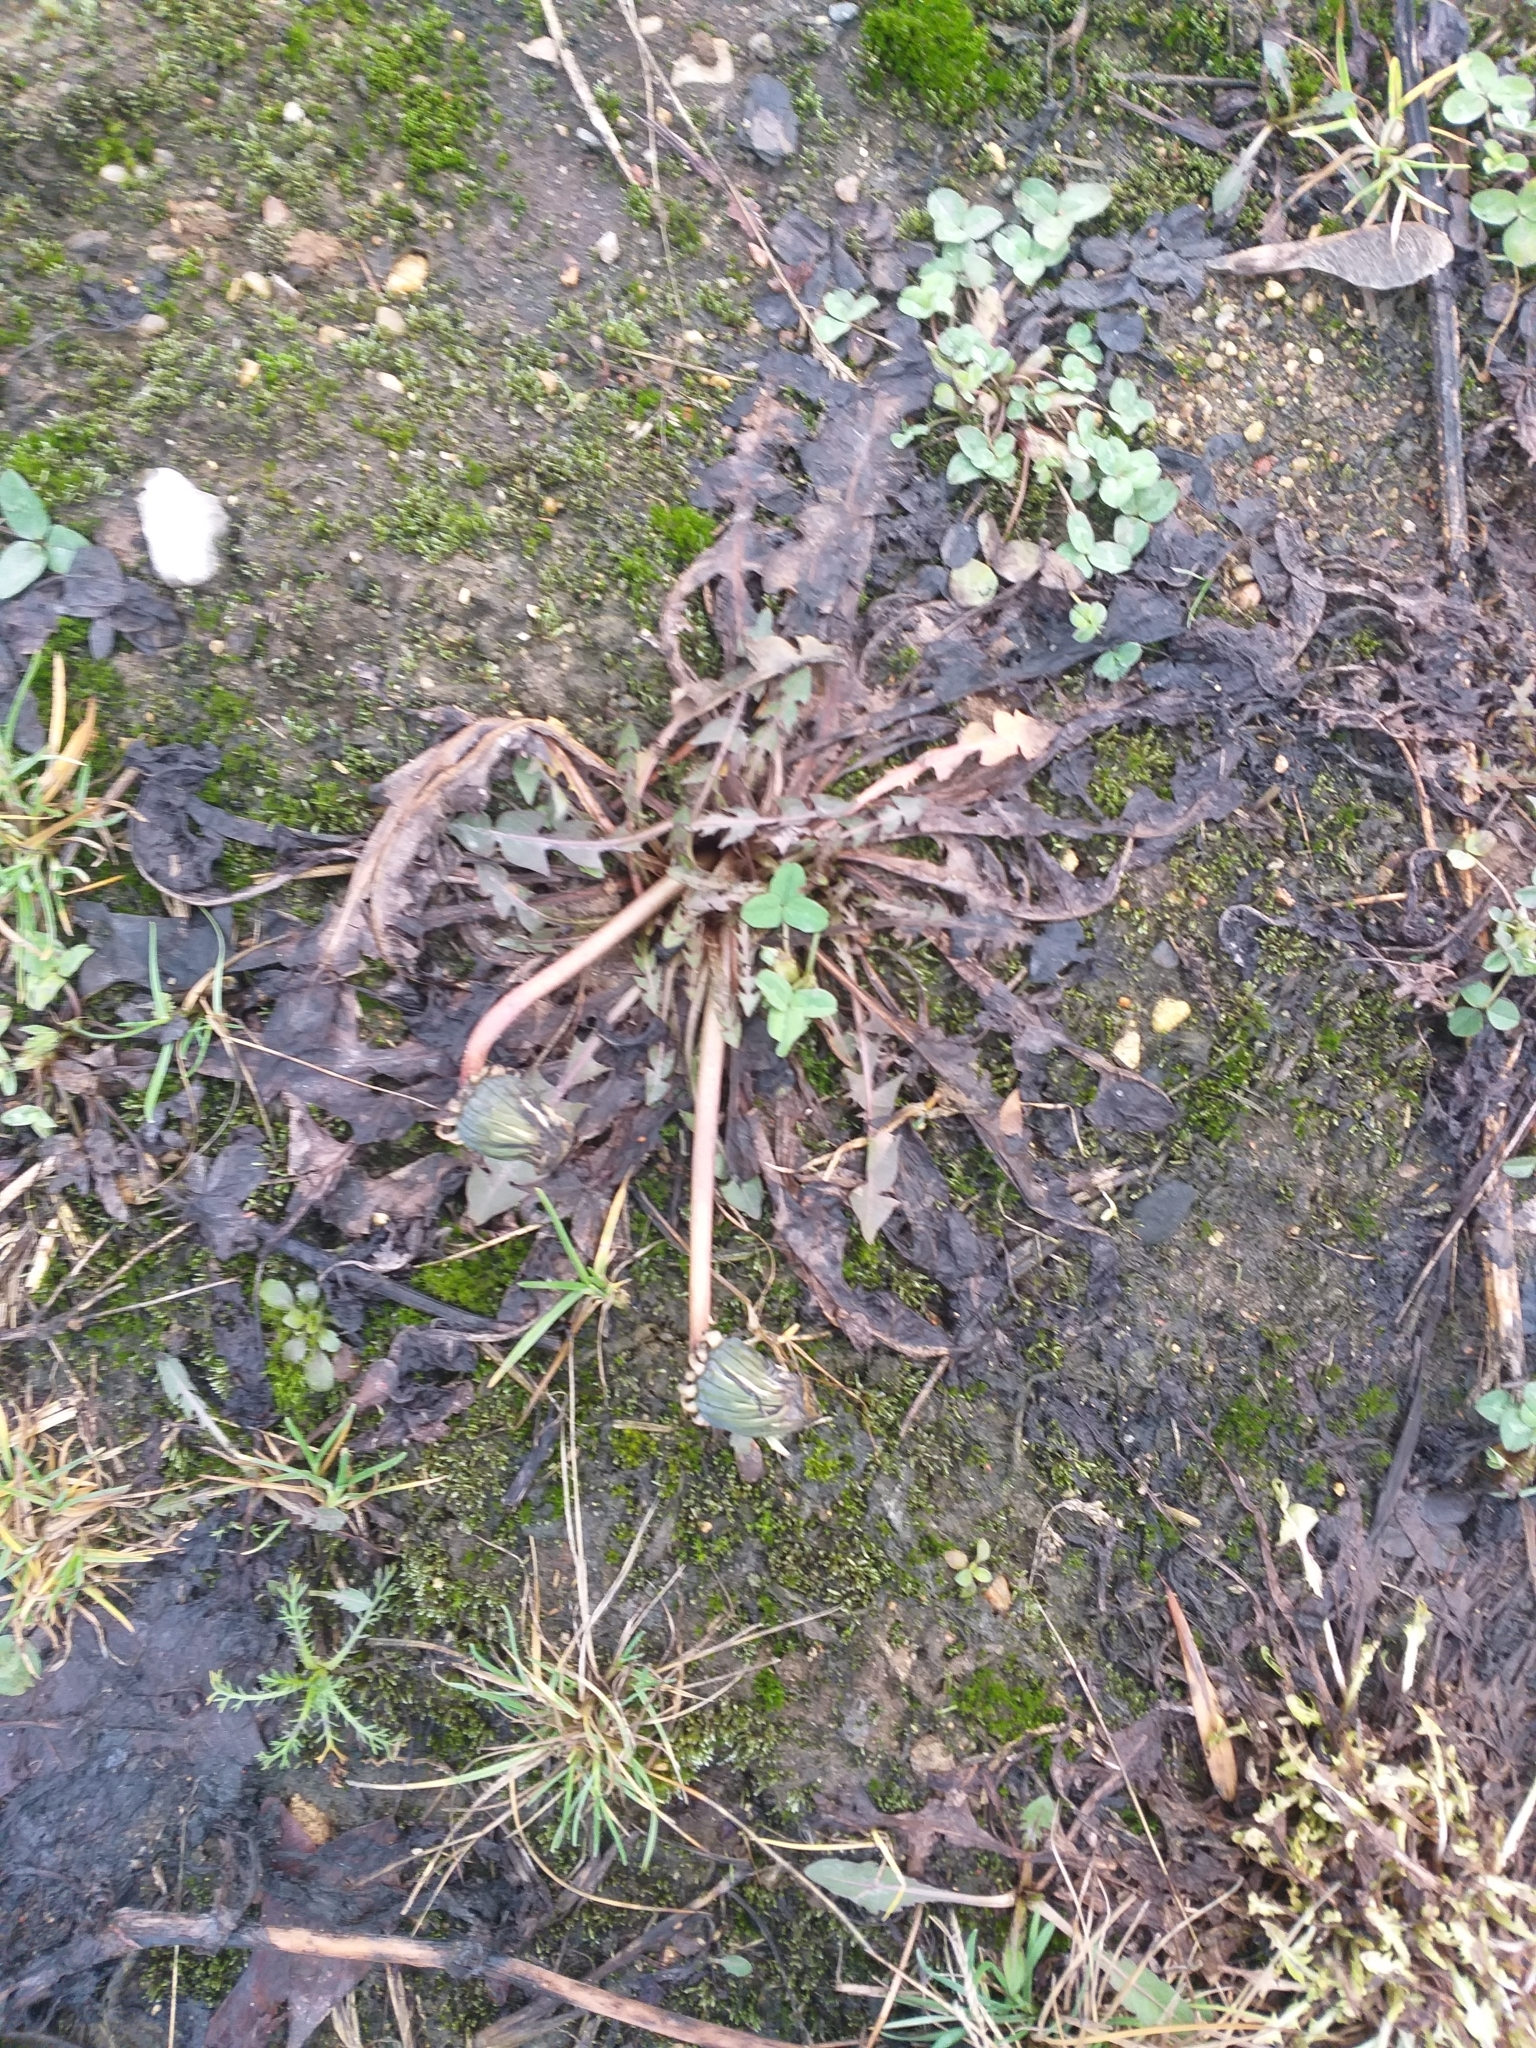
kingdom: Plantae
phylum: Tracheophyta
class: Magnoliopsida
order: Asterales
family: Asteraceae
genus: Taraxacum
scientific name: Taraxacum officinale
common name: Common dandelion
